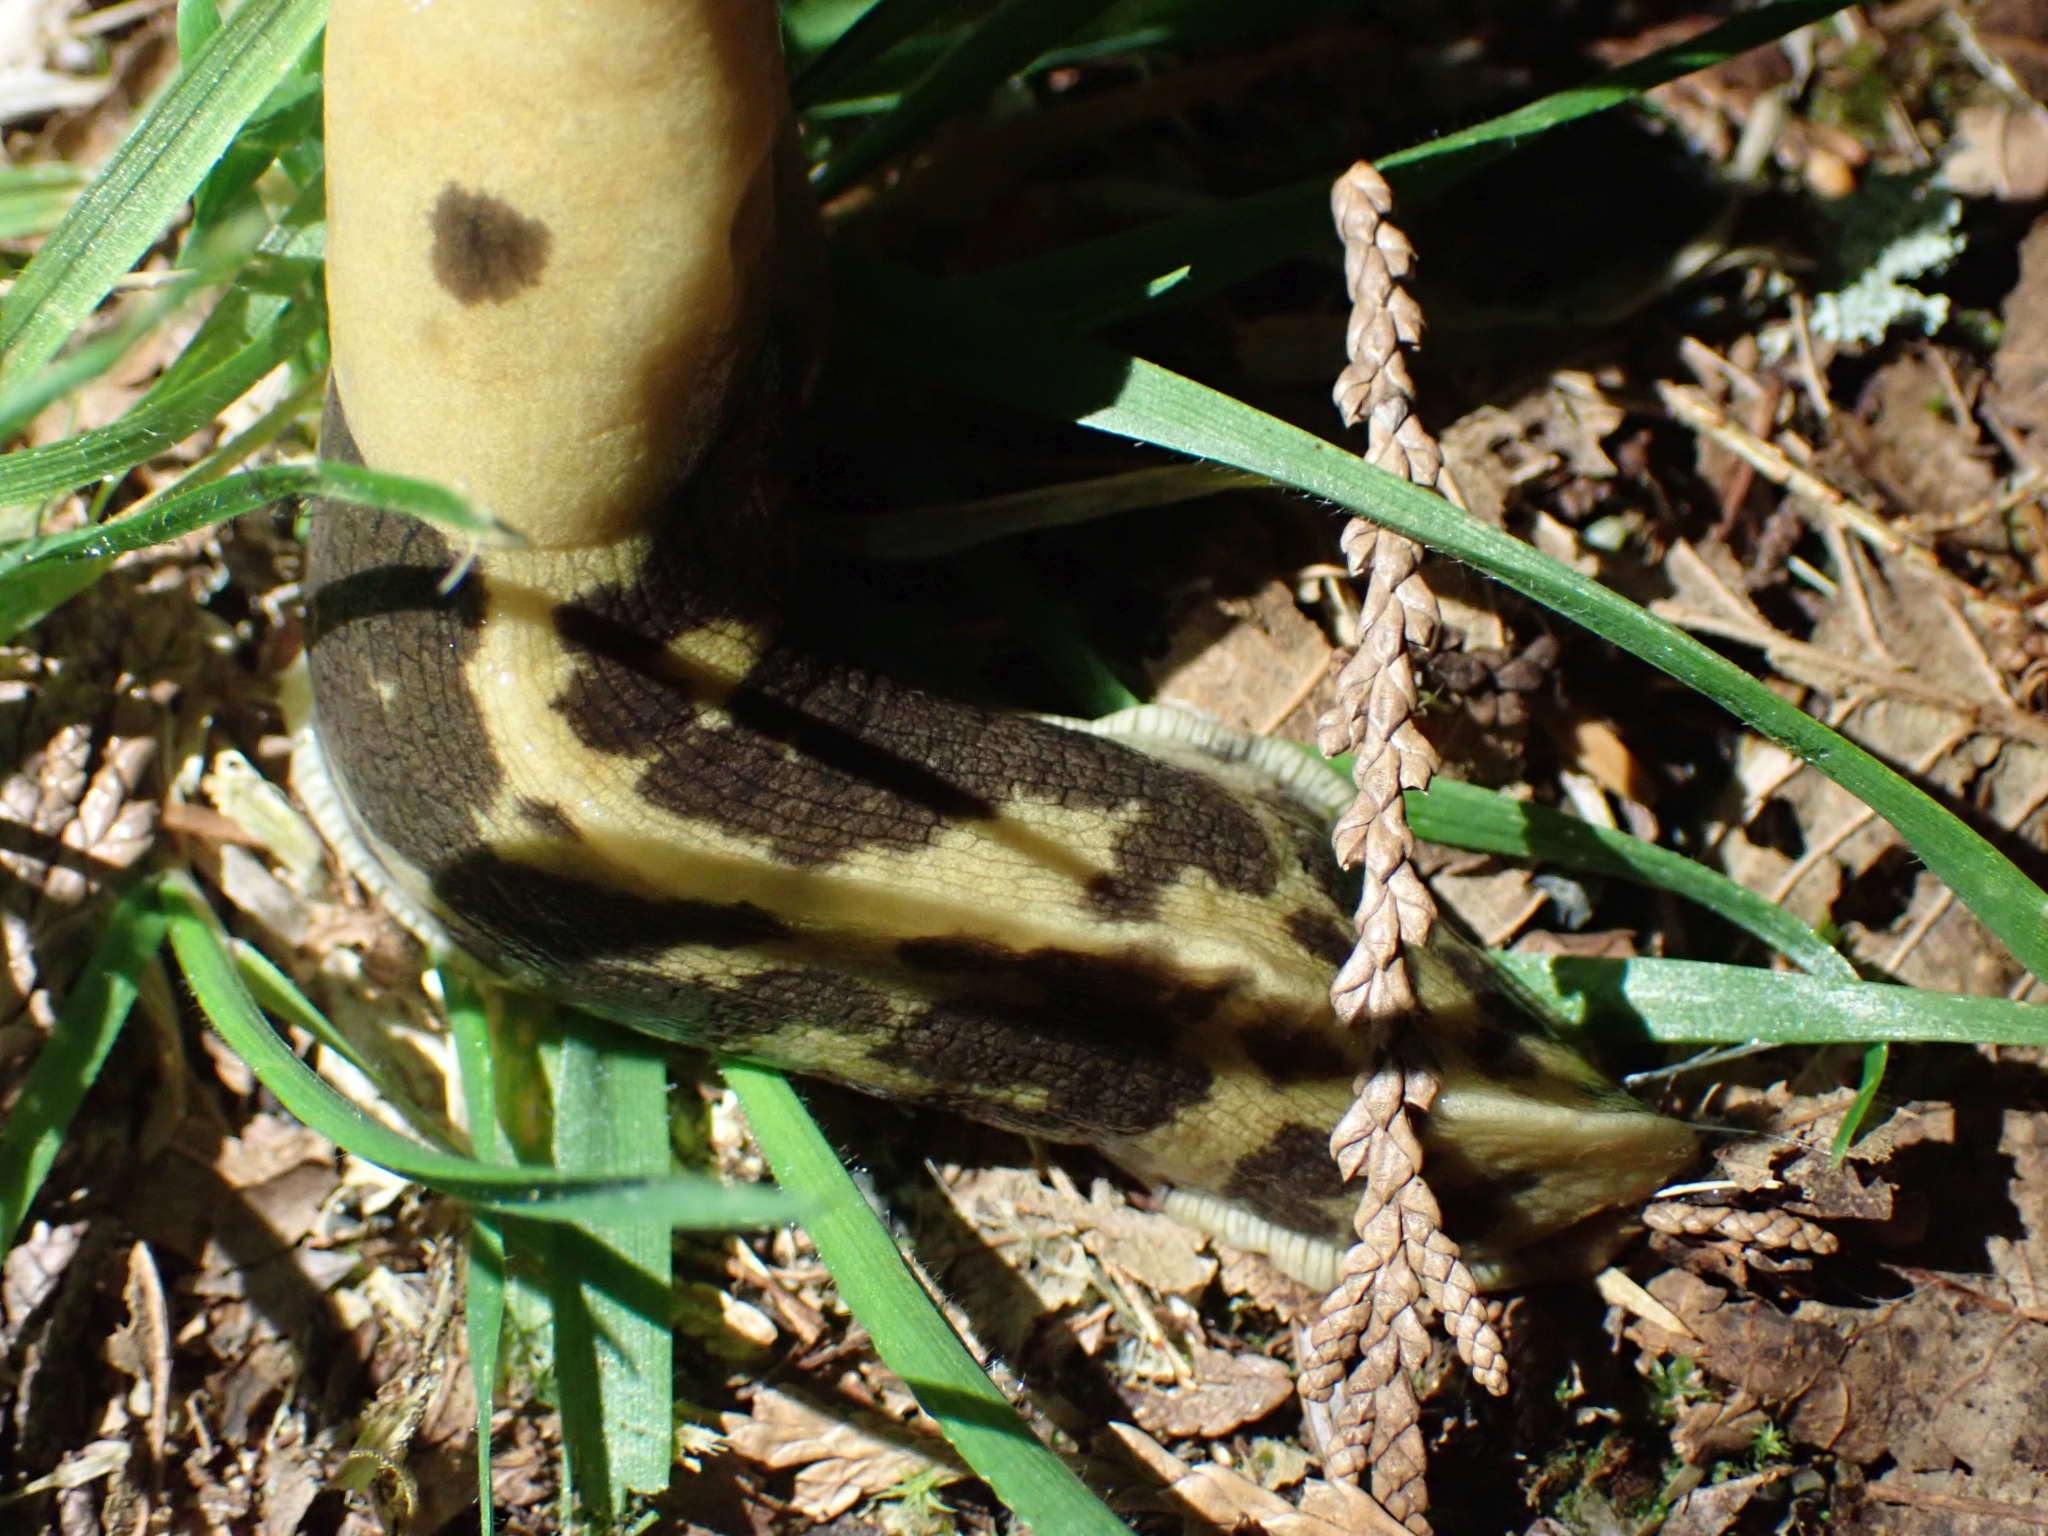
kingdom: Animalia
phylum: Mollusca
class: Gastropoda
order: Stylommatophora
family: Ariolimacidae
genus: Ariolimax
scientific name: Ariolimax columbianus
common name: Pacific banana slug
